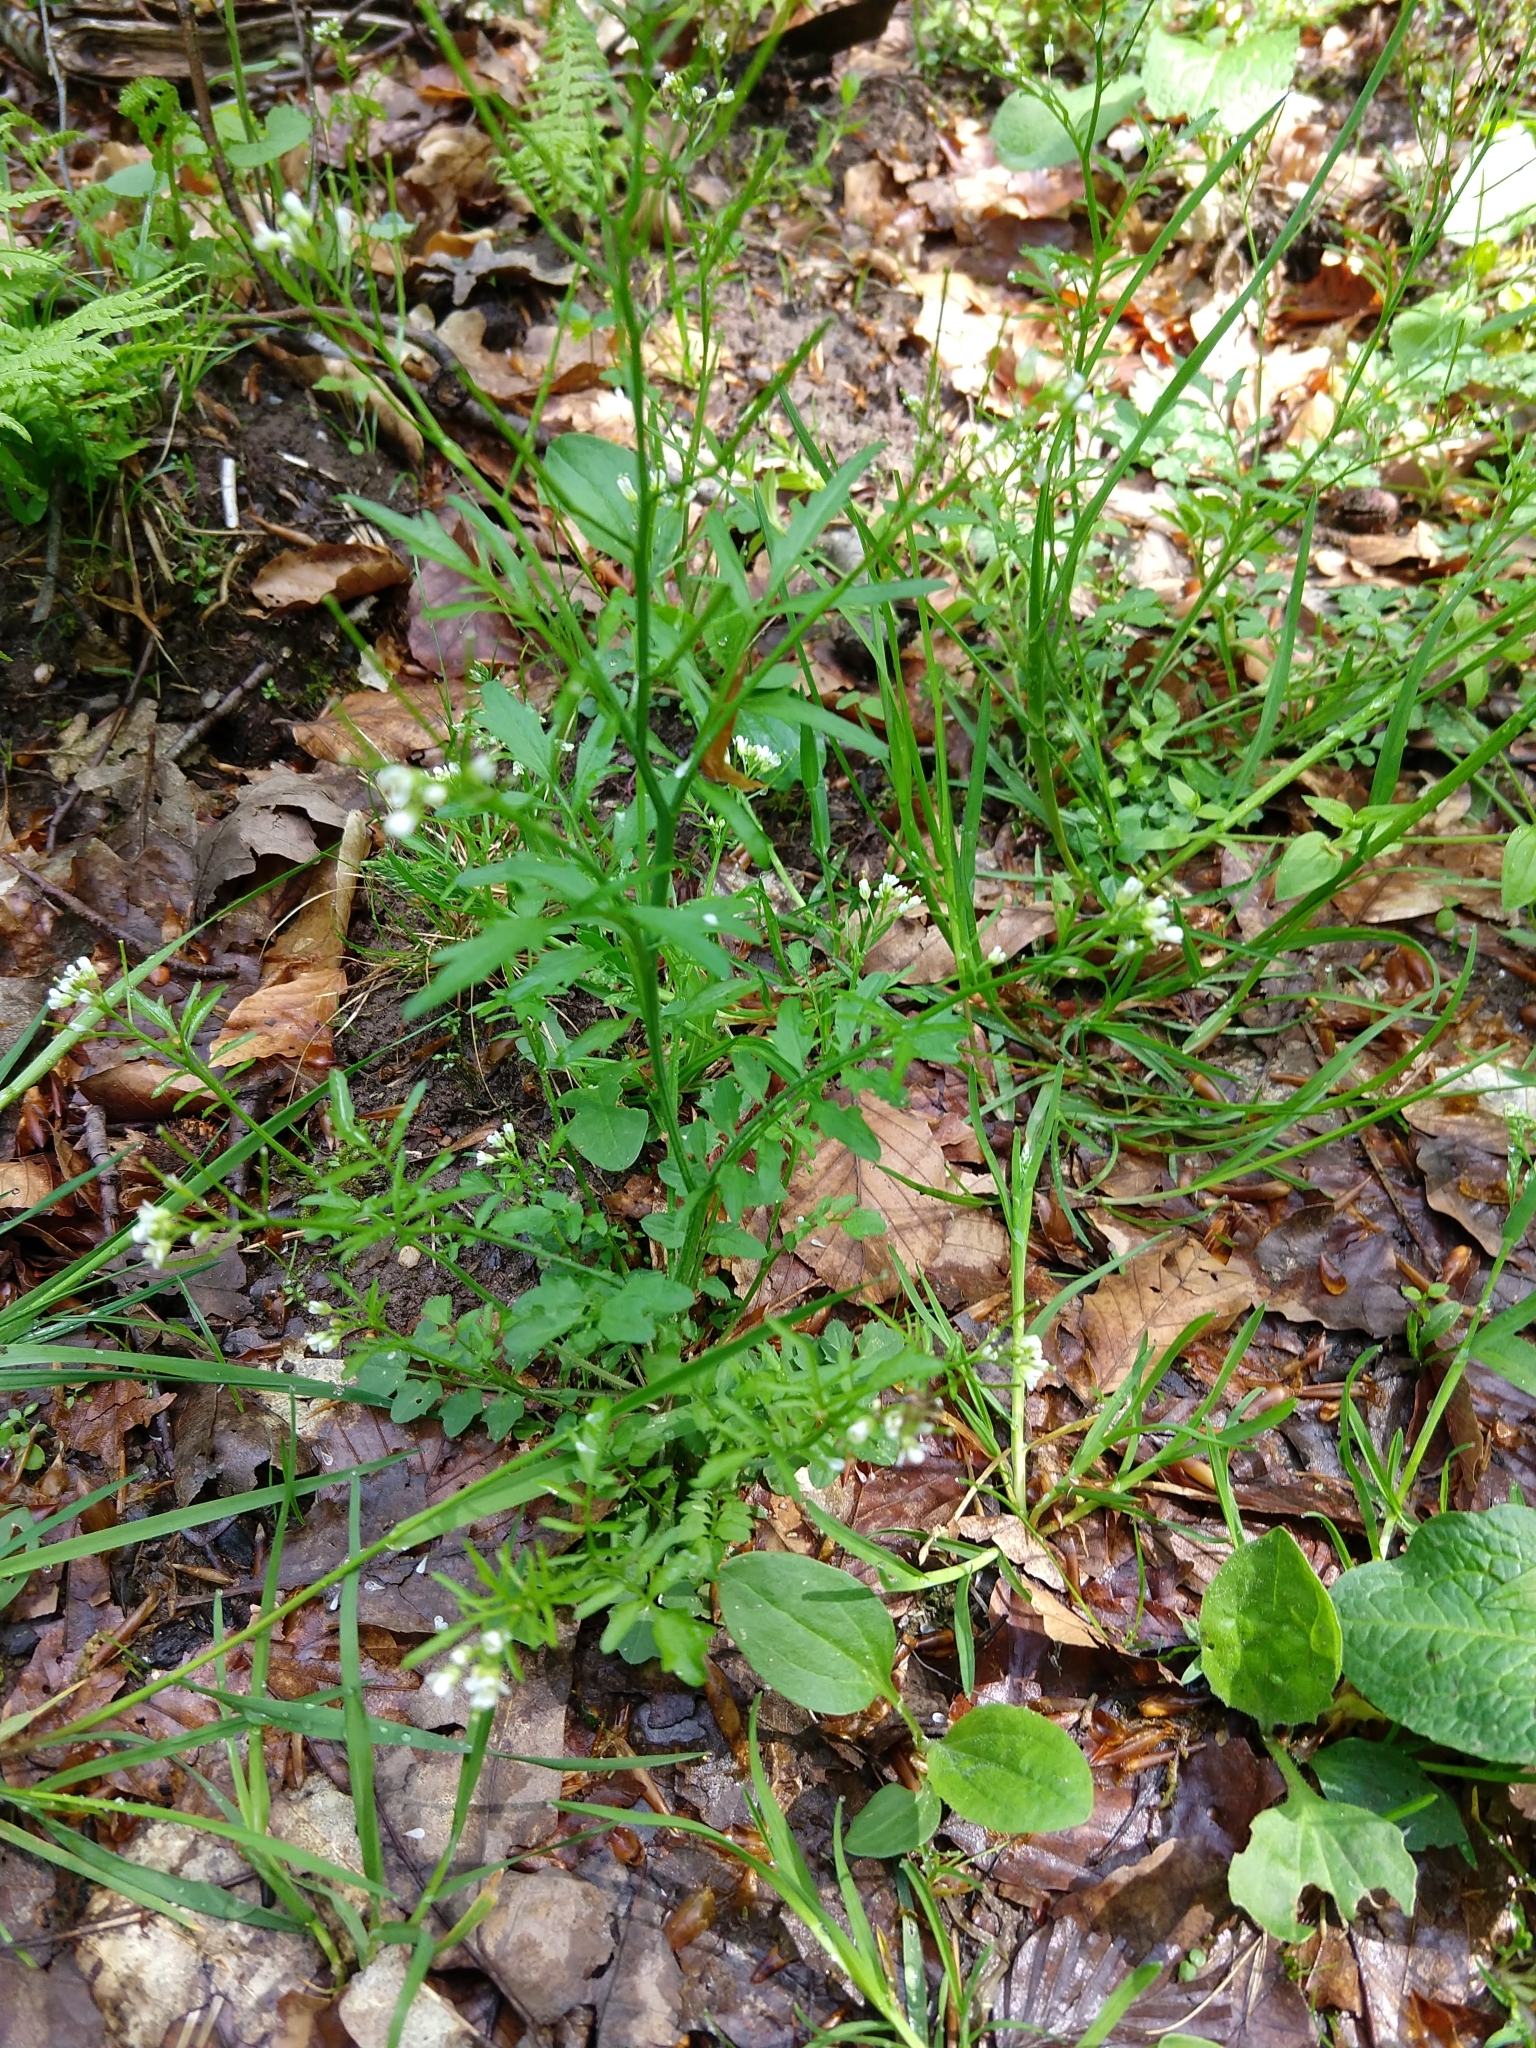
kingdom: Plantae
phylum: Tracheophyta
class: Magnoliopsida
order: Brassicales
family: Brassicaceae
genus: Cardamine
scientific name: Cardamine flexuosa
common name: Woodland bittercress
